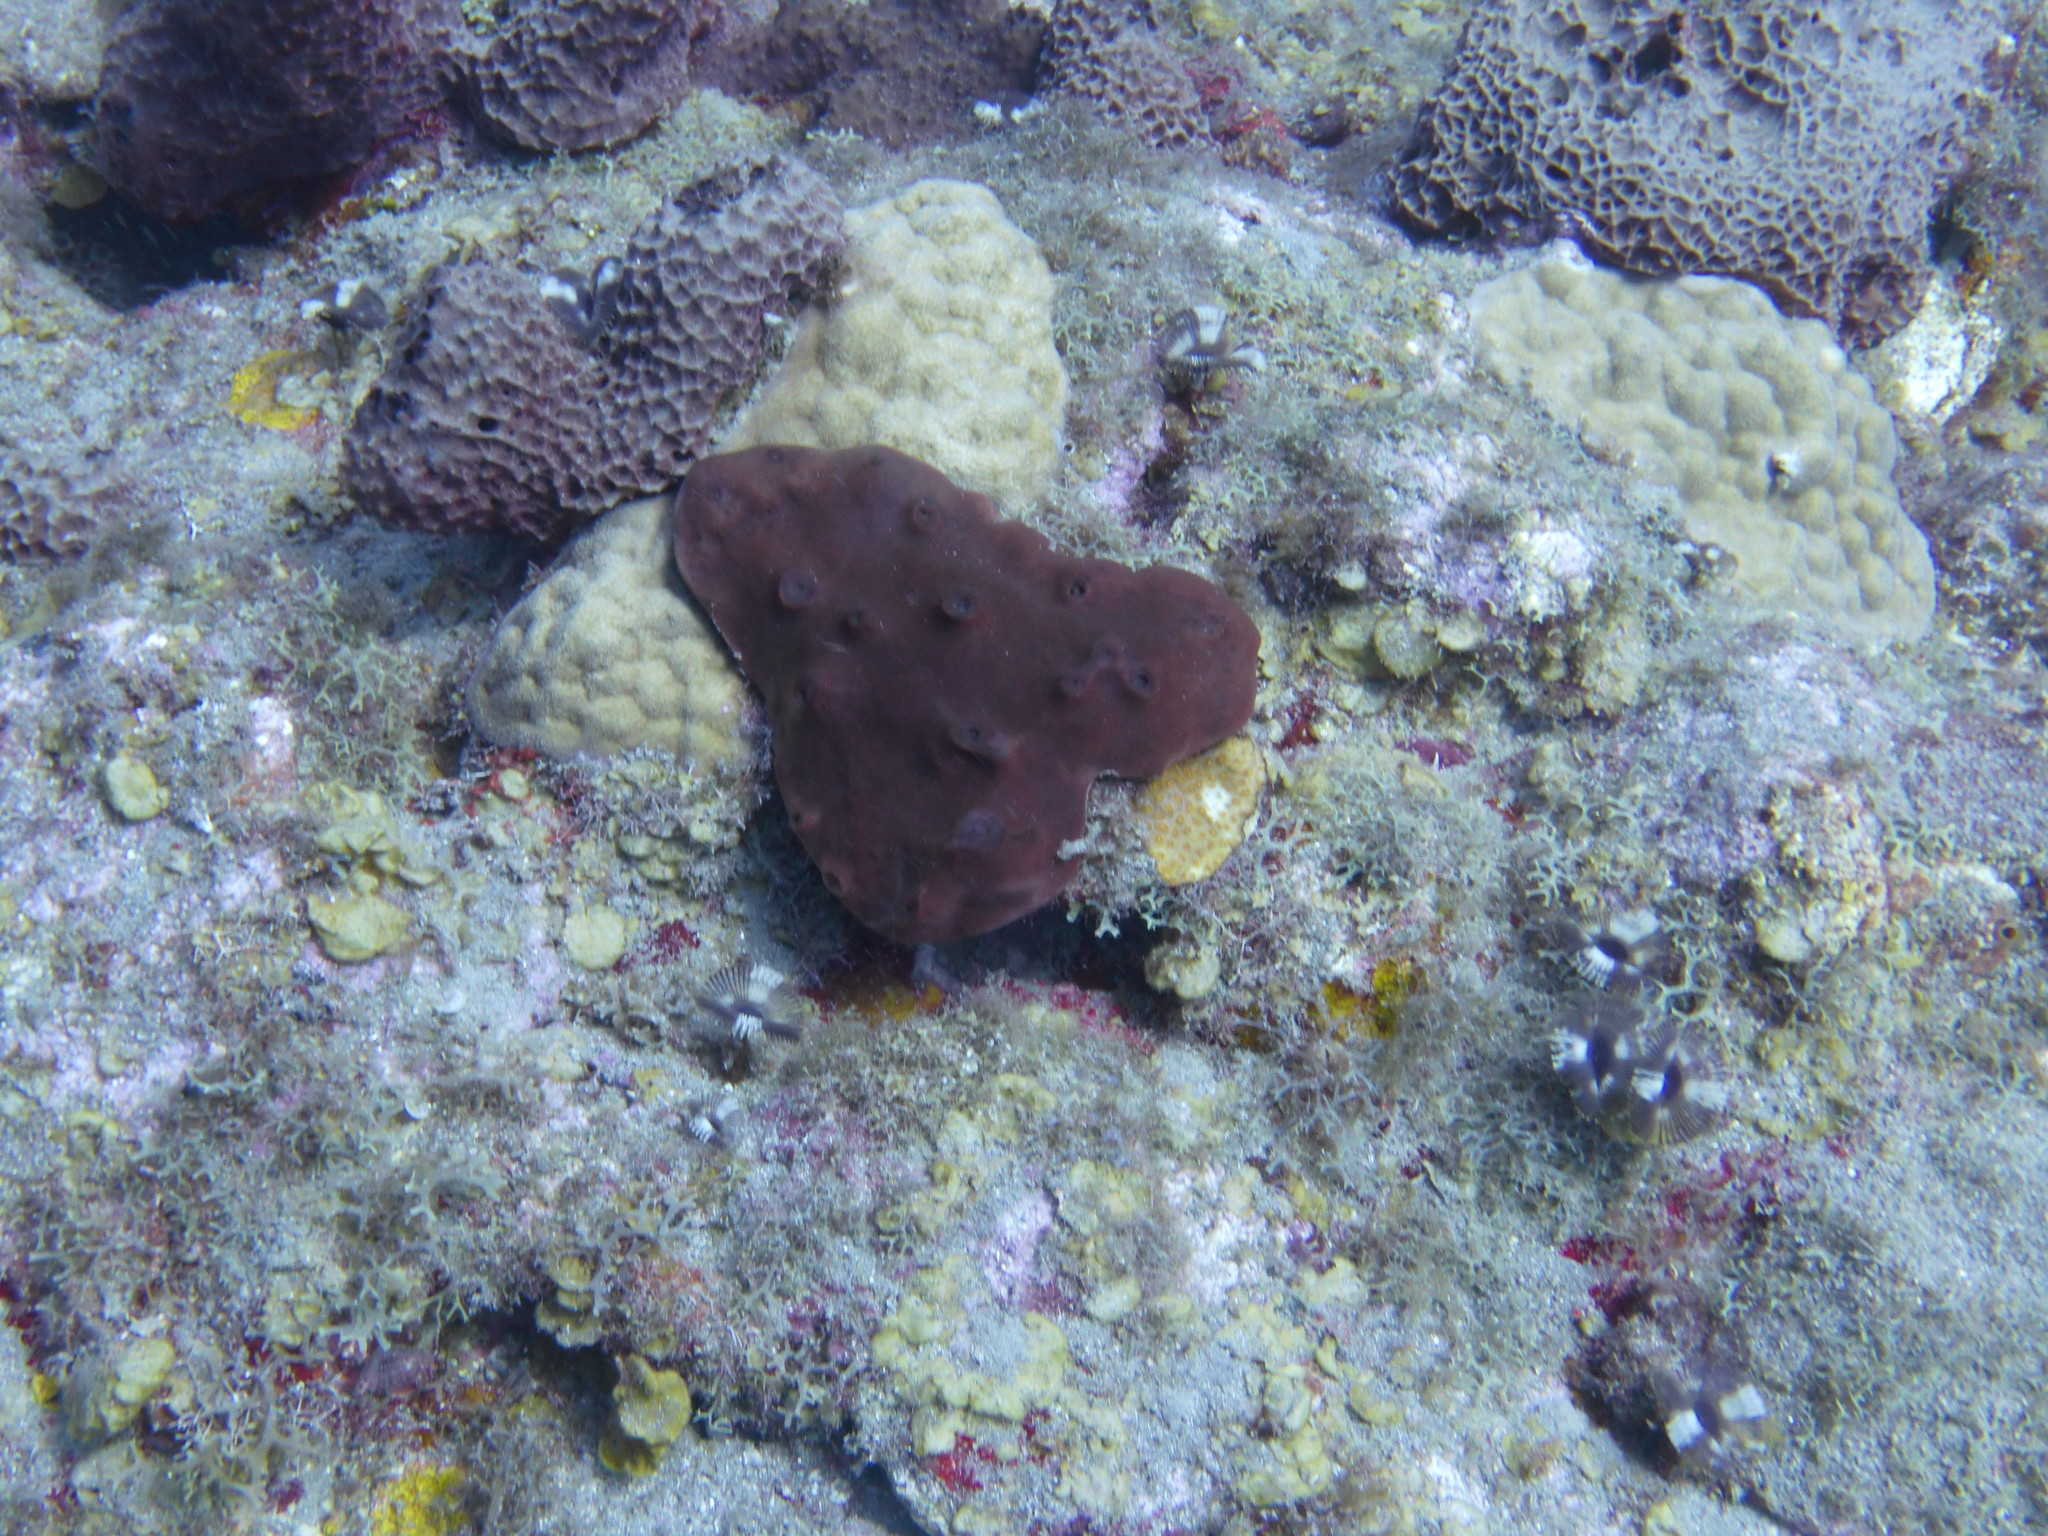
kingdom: Animalia
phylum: Cnidaria
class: Anthozoa
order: Scleractinia
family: Poritidae
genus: Porites
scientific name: Porites astreoides
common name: Mustard hill coral
